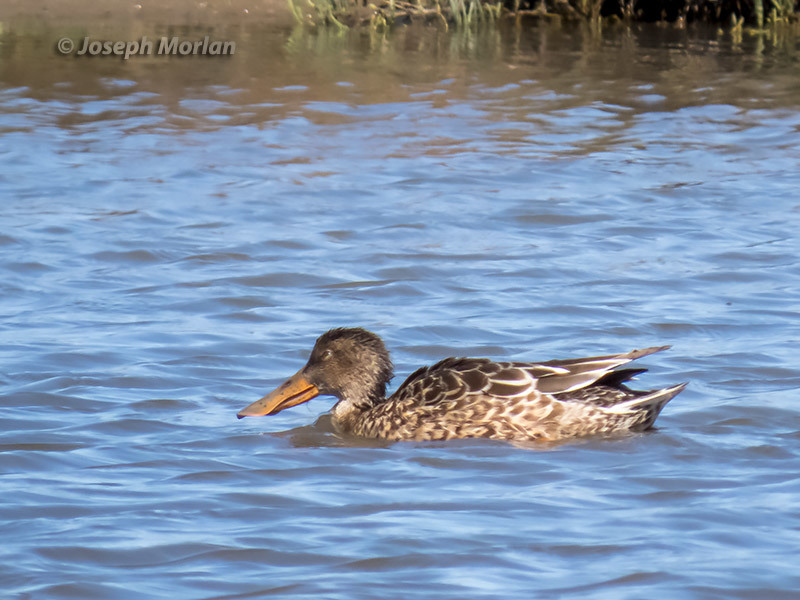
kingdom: Animalia
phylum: Chordata
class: Aves
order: Anseriformes
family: Anatidae
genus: Spatula
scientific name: Spatula clypeata
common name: Northern shoveler
